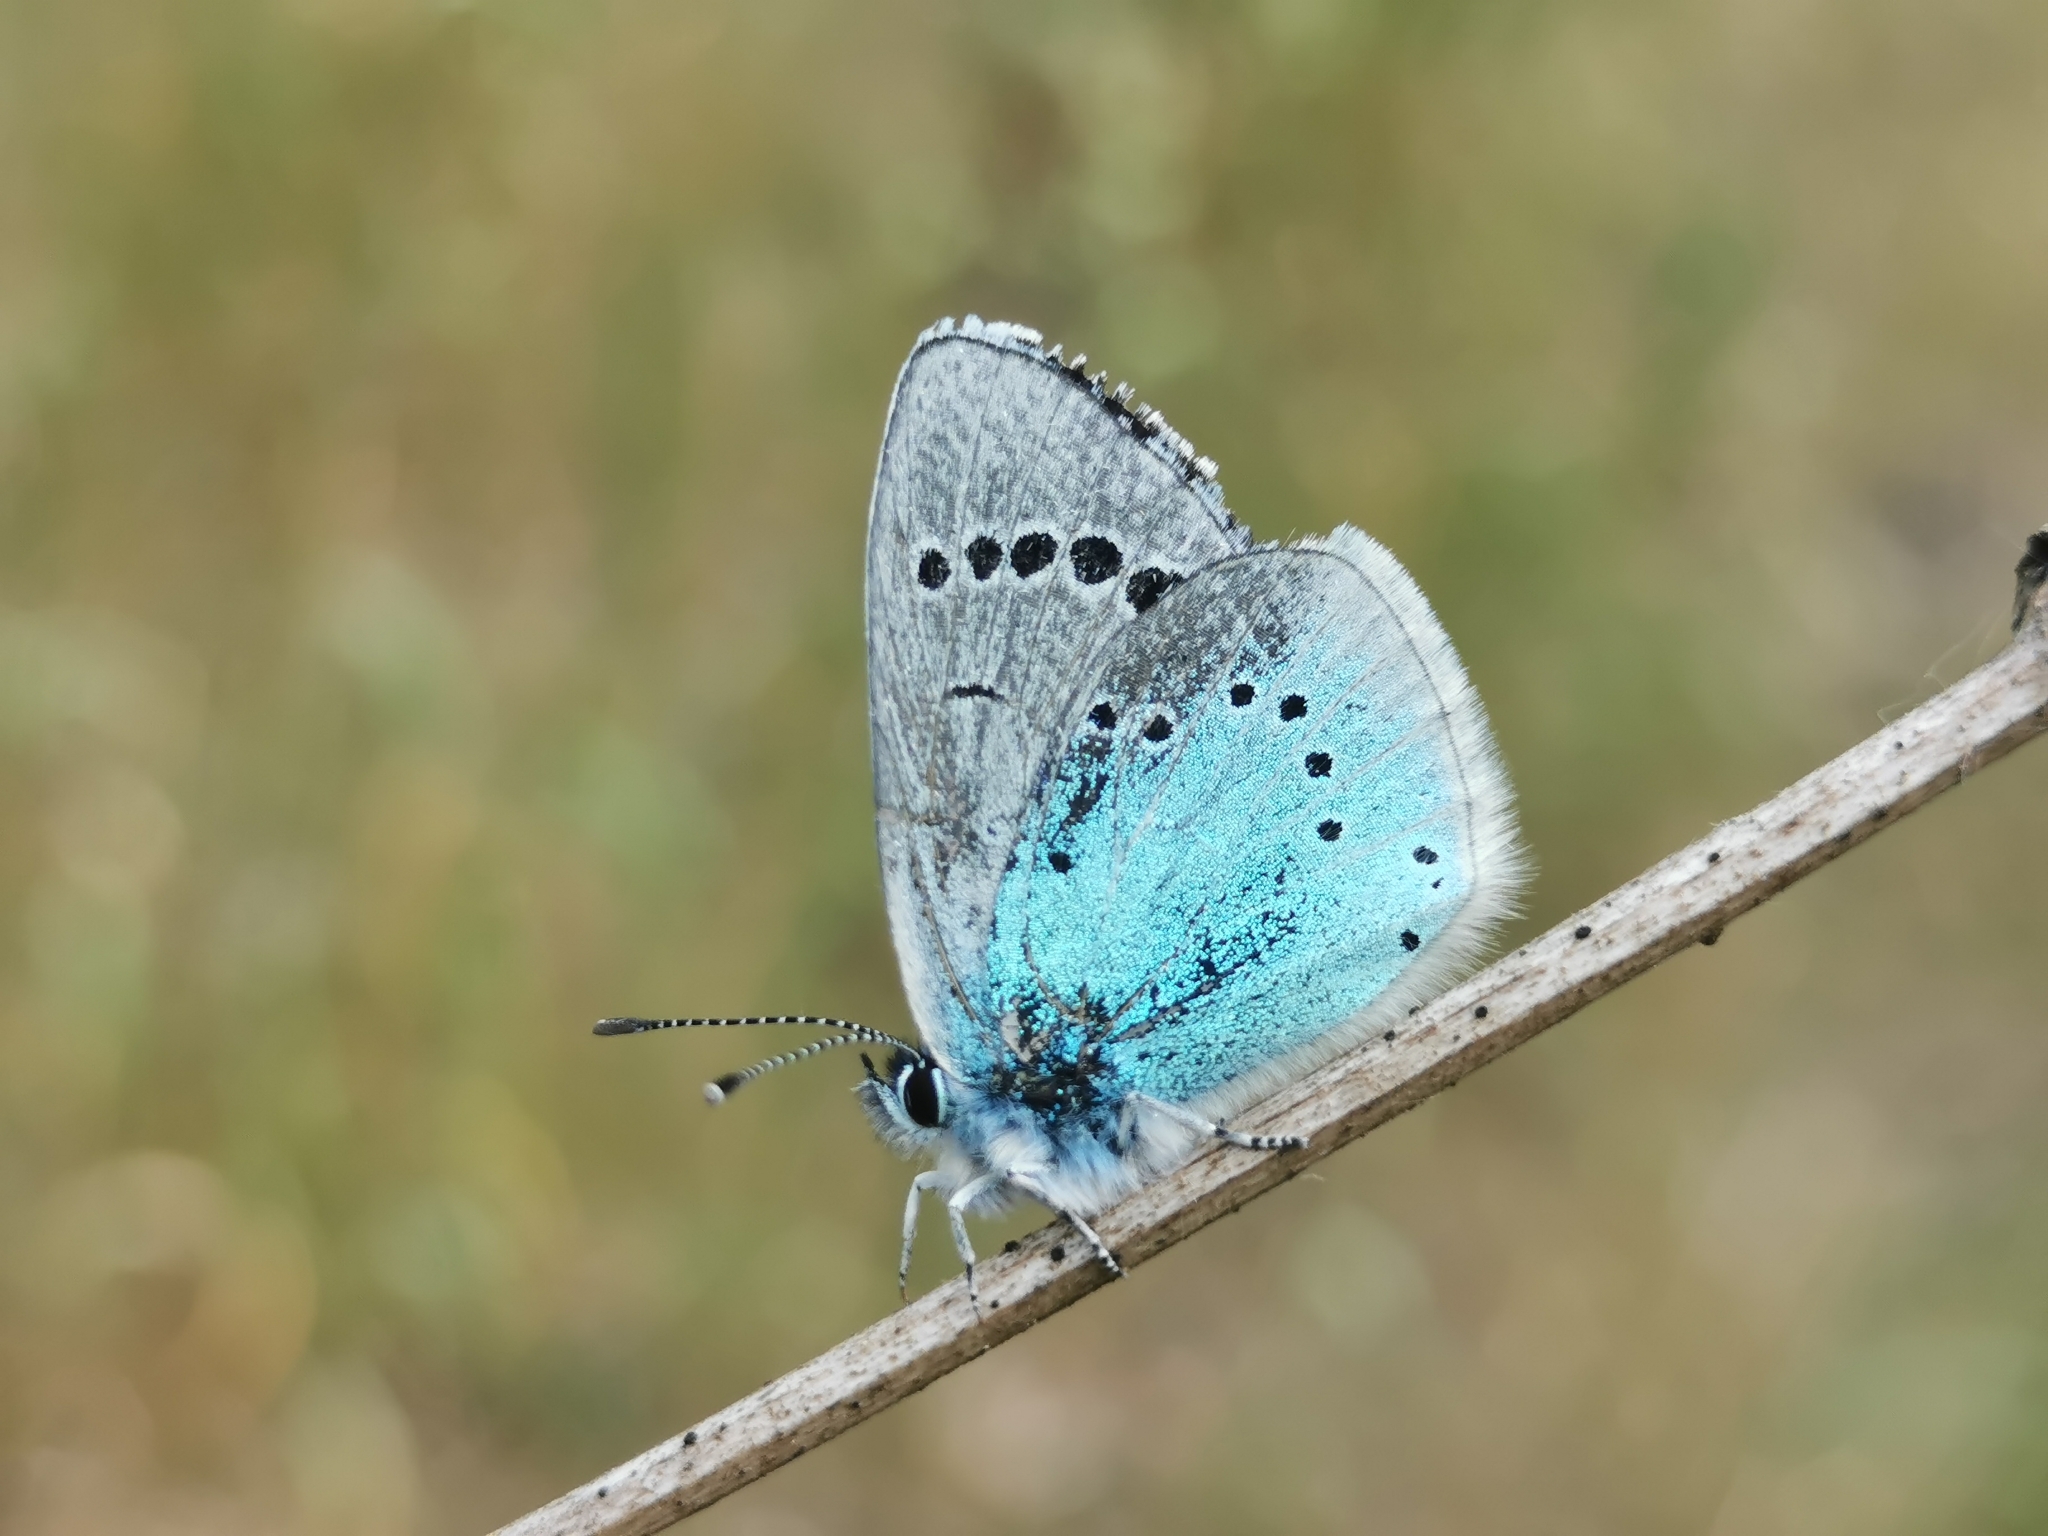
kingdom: Animalia
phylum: Arthropoda
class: Insecta
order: Lepidoptera
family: Lycaenidae
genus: Glaucopsyche
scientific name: Glaucopsyche alexis
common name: Green-underside blue
